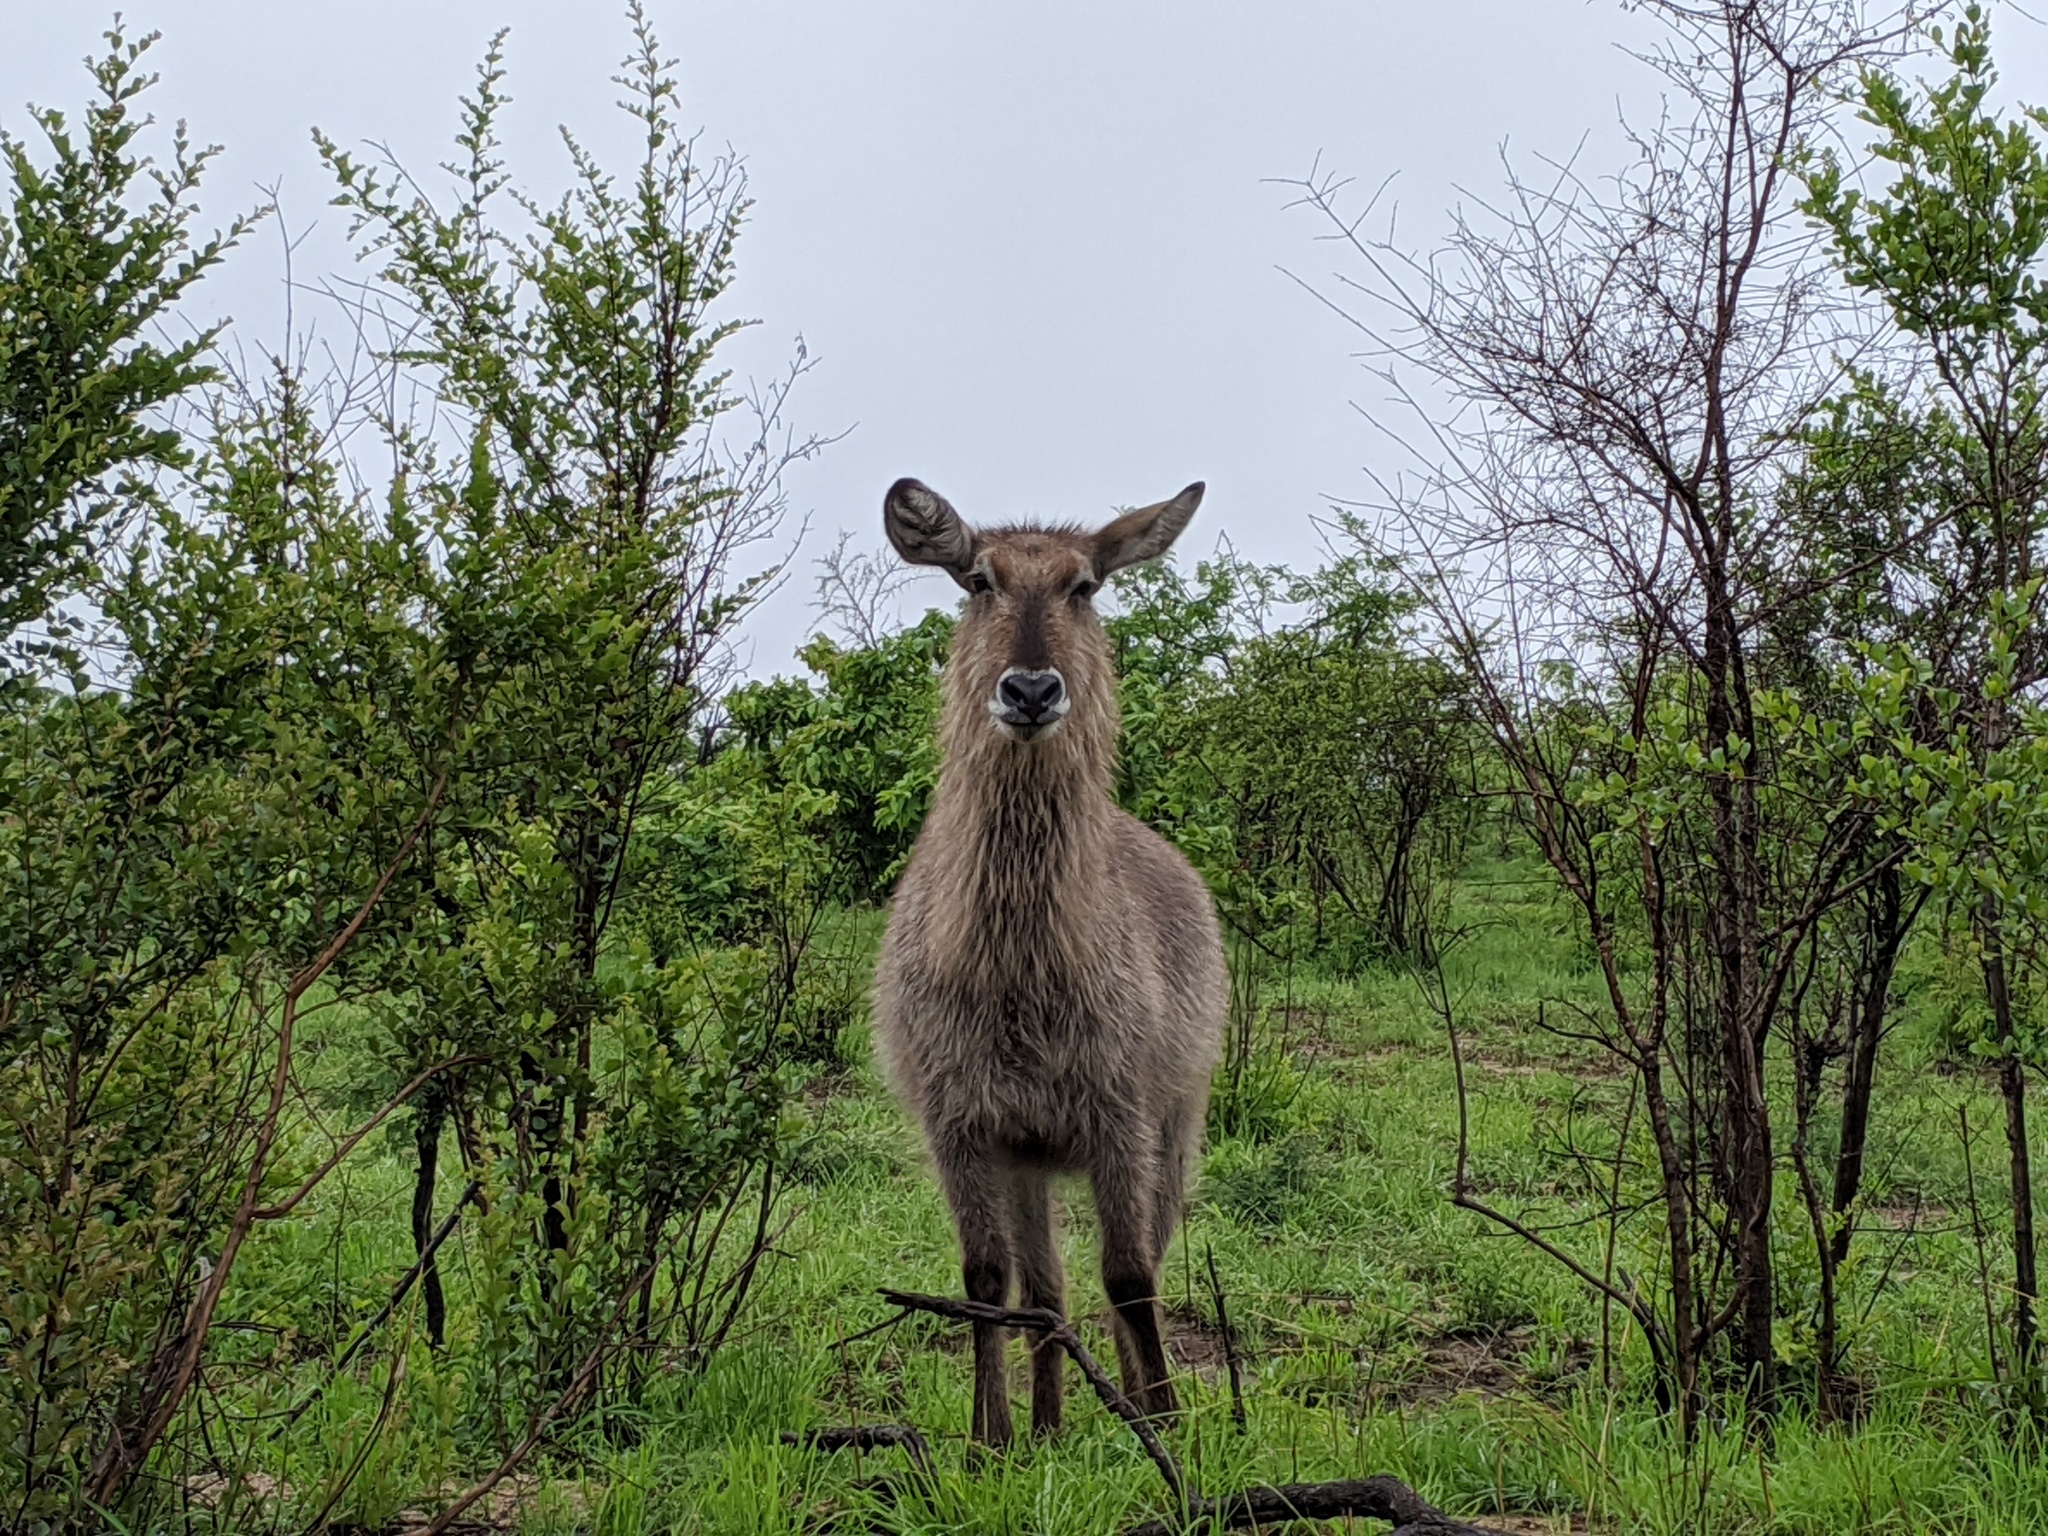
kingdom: Animalia
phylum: Chordata
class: Mammalia
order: Artiodactyla
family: Bovidae
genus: Kobus
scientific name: Kobus ellipsiprymnus
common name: Waterbuck
